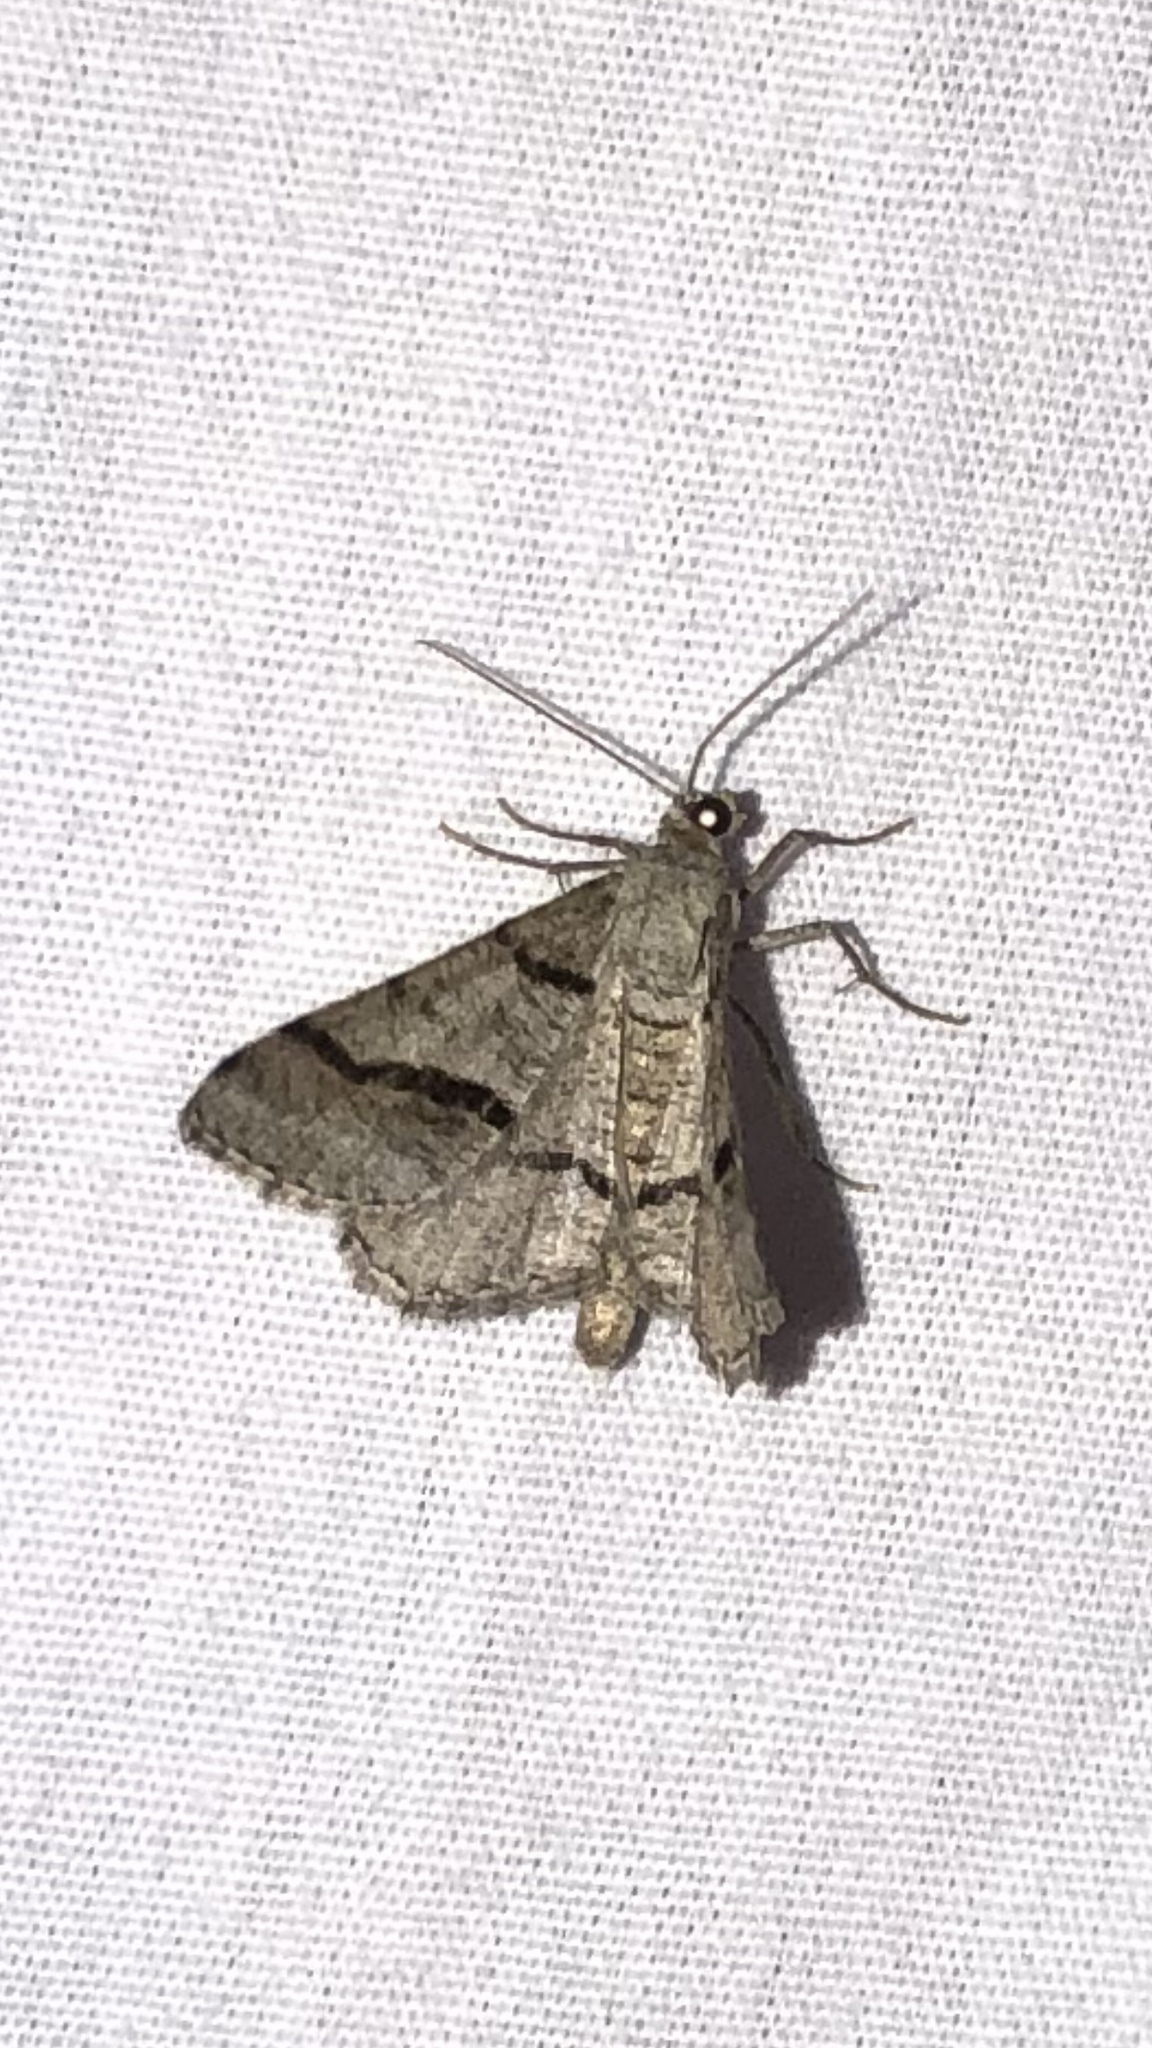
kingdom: Animalia
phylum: Arthropoda
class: Insecta
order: Lepidoptera
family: Geometridae
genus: Digrammia
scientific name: Digrammia continuata
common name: Curve-lined angle
